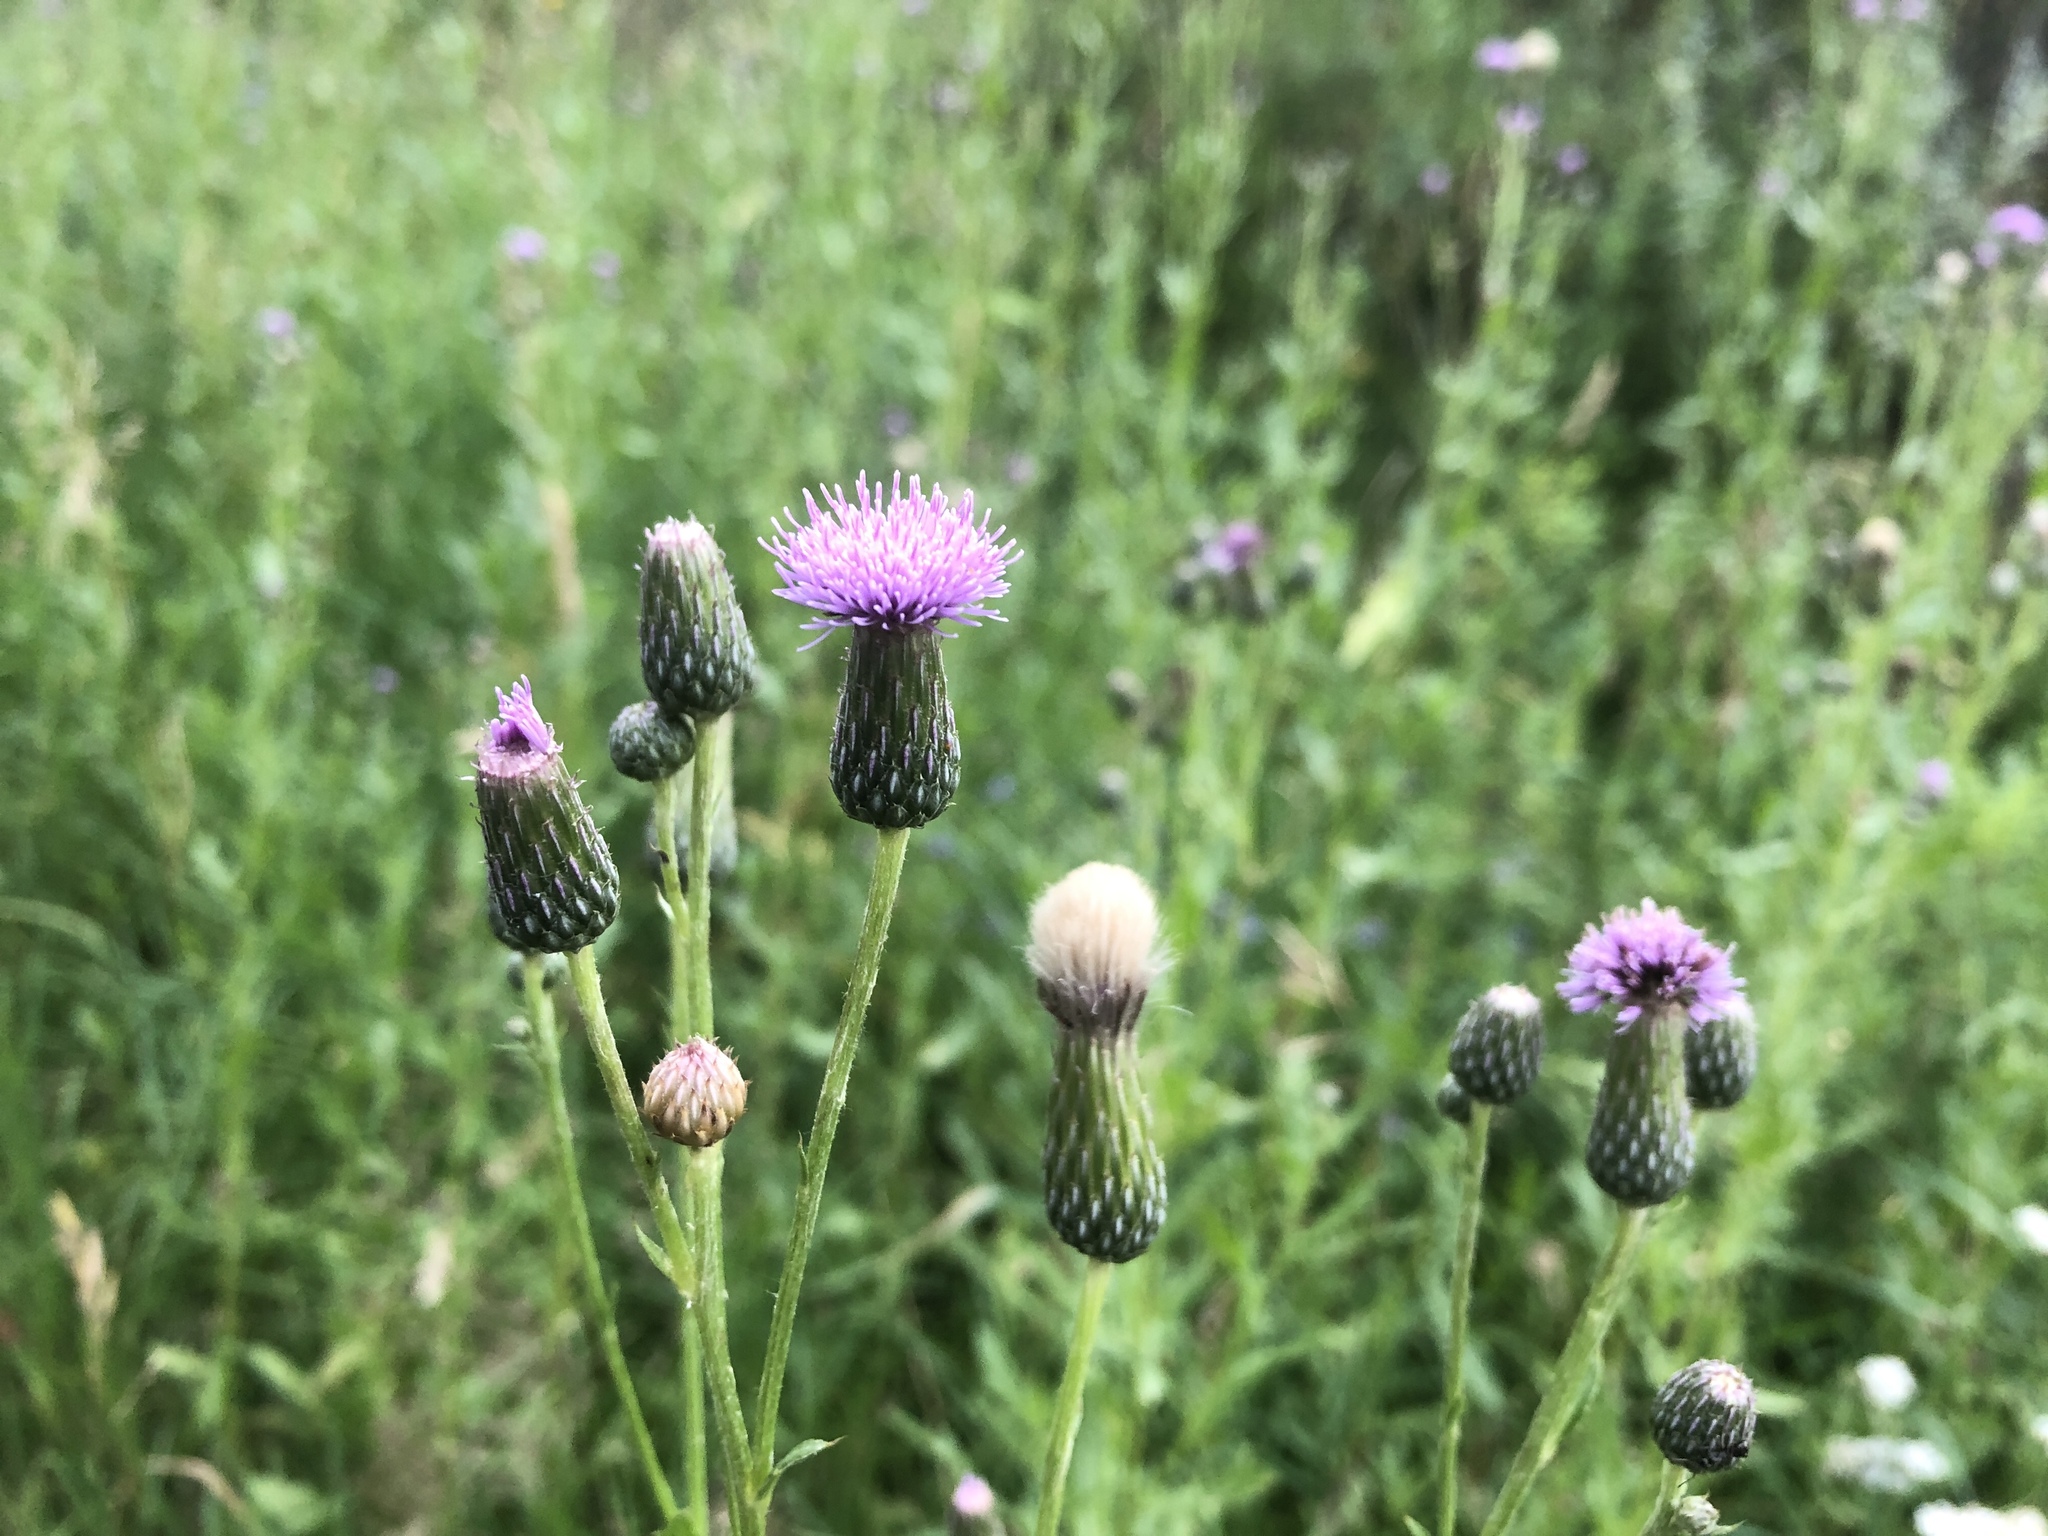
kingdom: Plantae
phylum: Tracheophyta
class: Magnoliopsida
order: Asterales
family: Asteraceae
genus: Cirsium
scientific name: Cirsium arvense
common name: Creeping thistle
